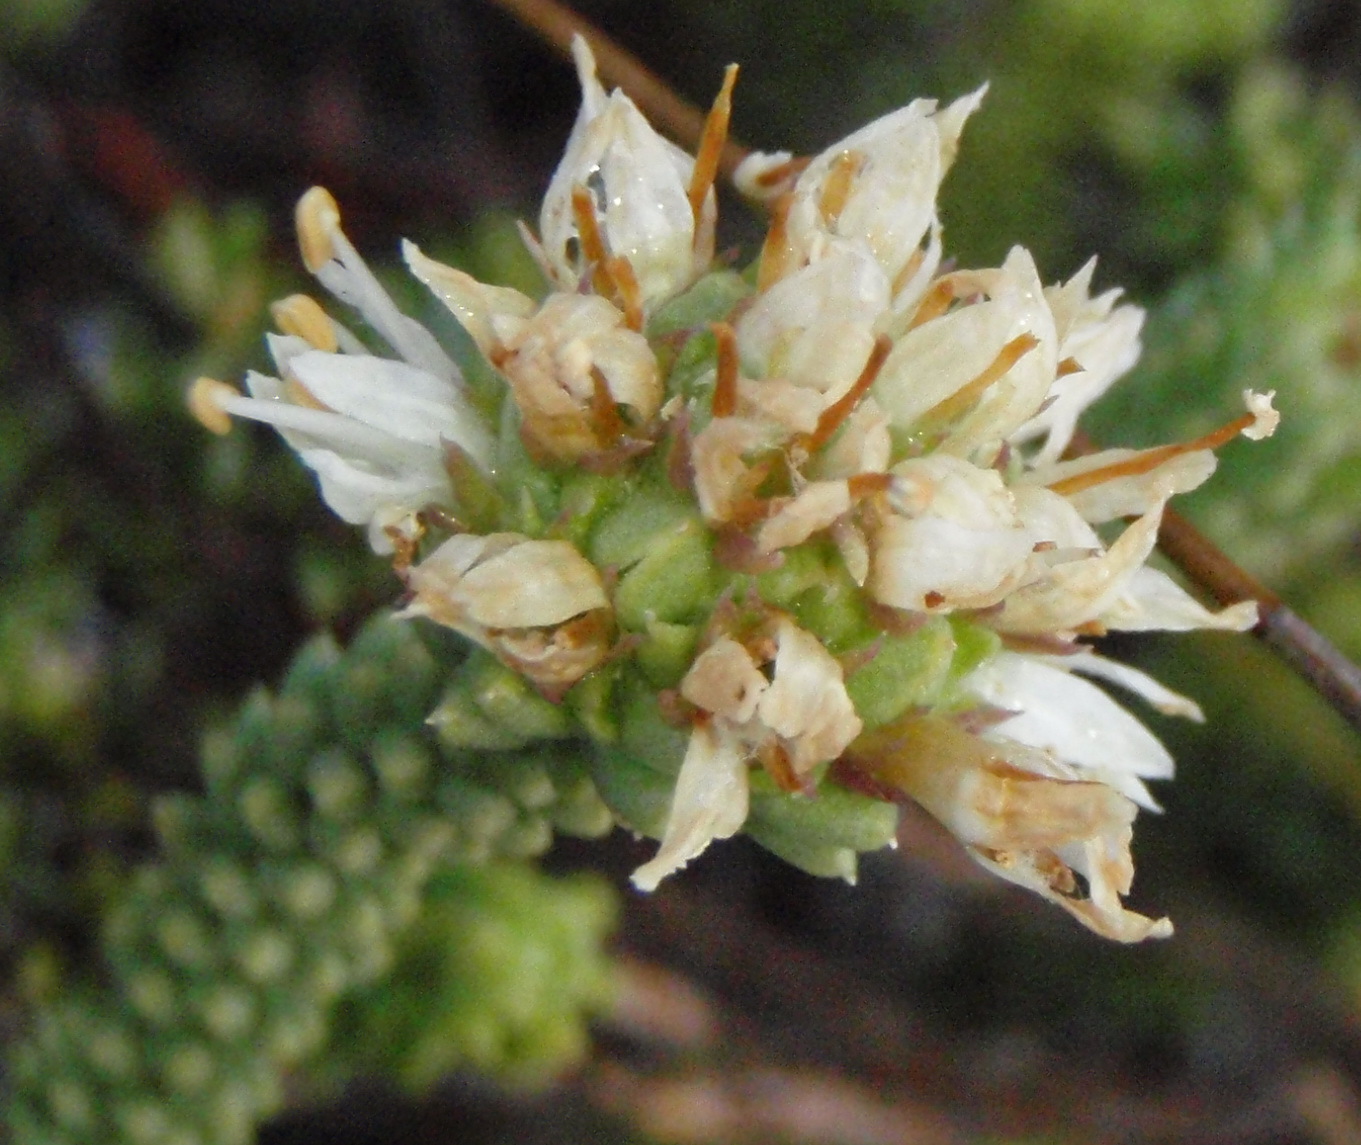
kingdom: Plantae
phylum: Tracheophyta
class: Magnoliopsida
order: Lamiales
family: Stilbaceae
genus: Campylostachys
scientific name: Campylostachys cernua
